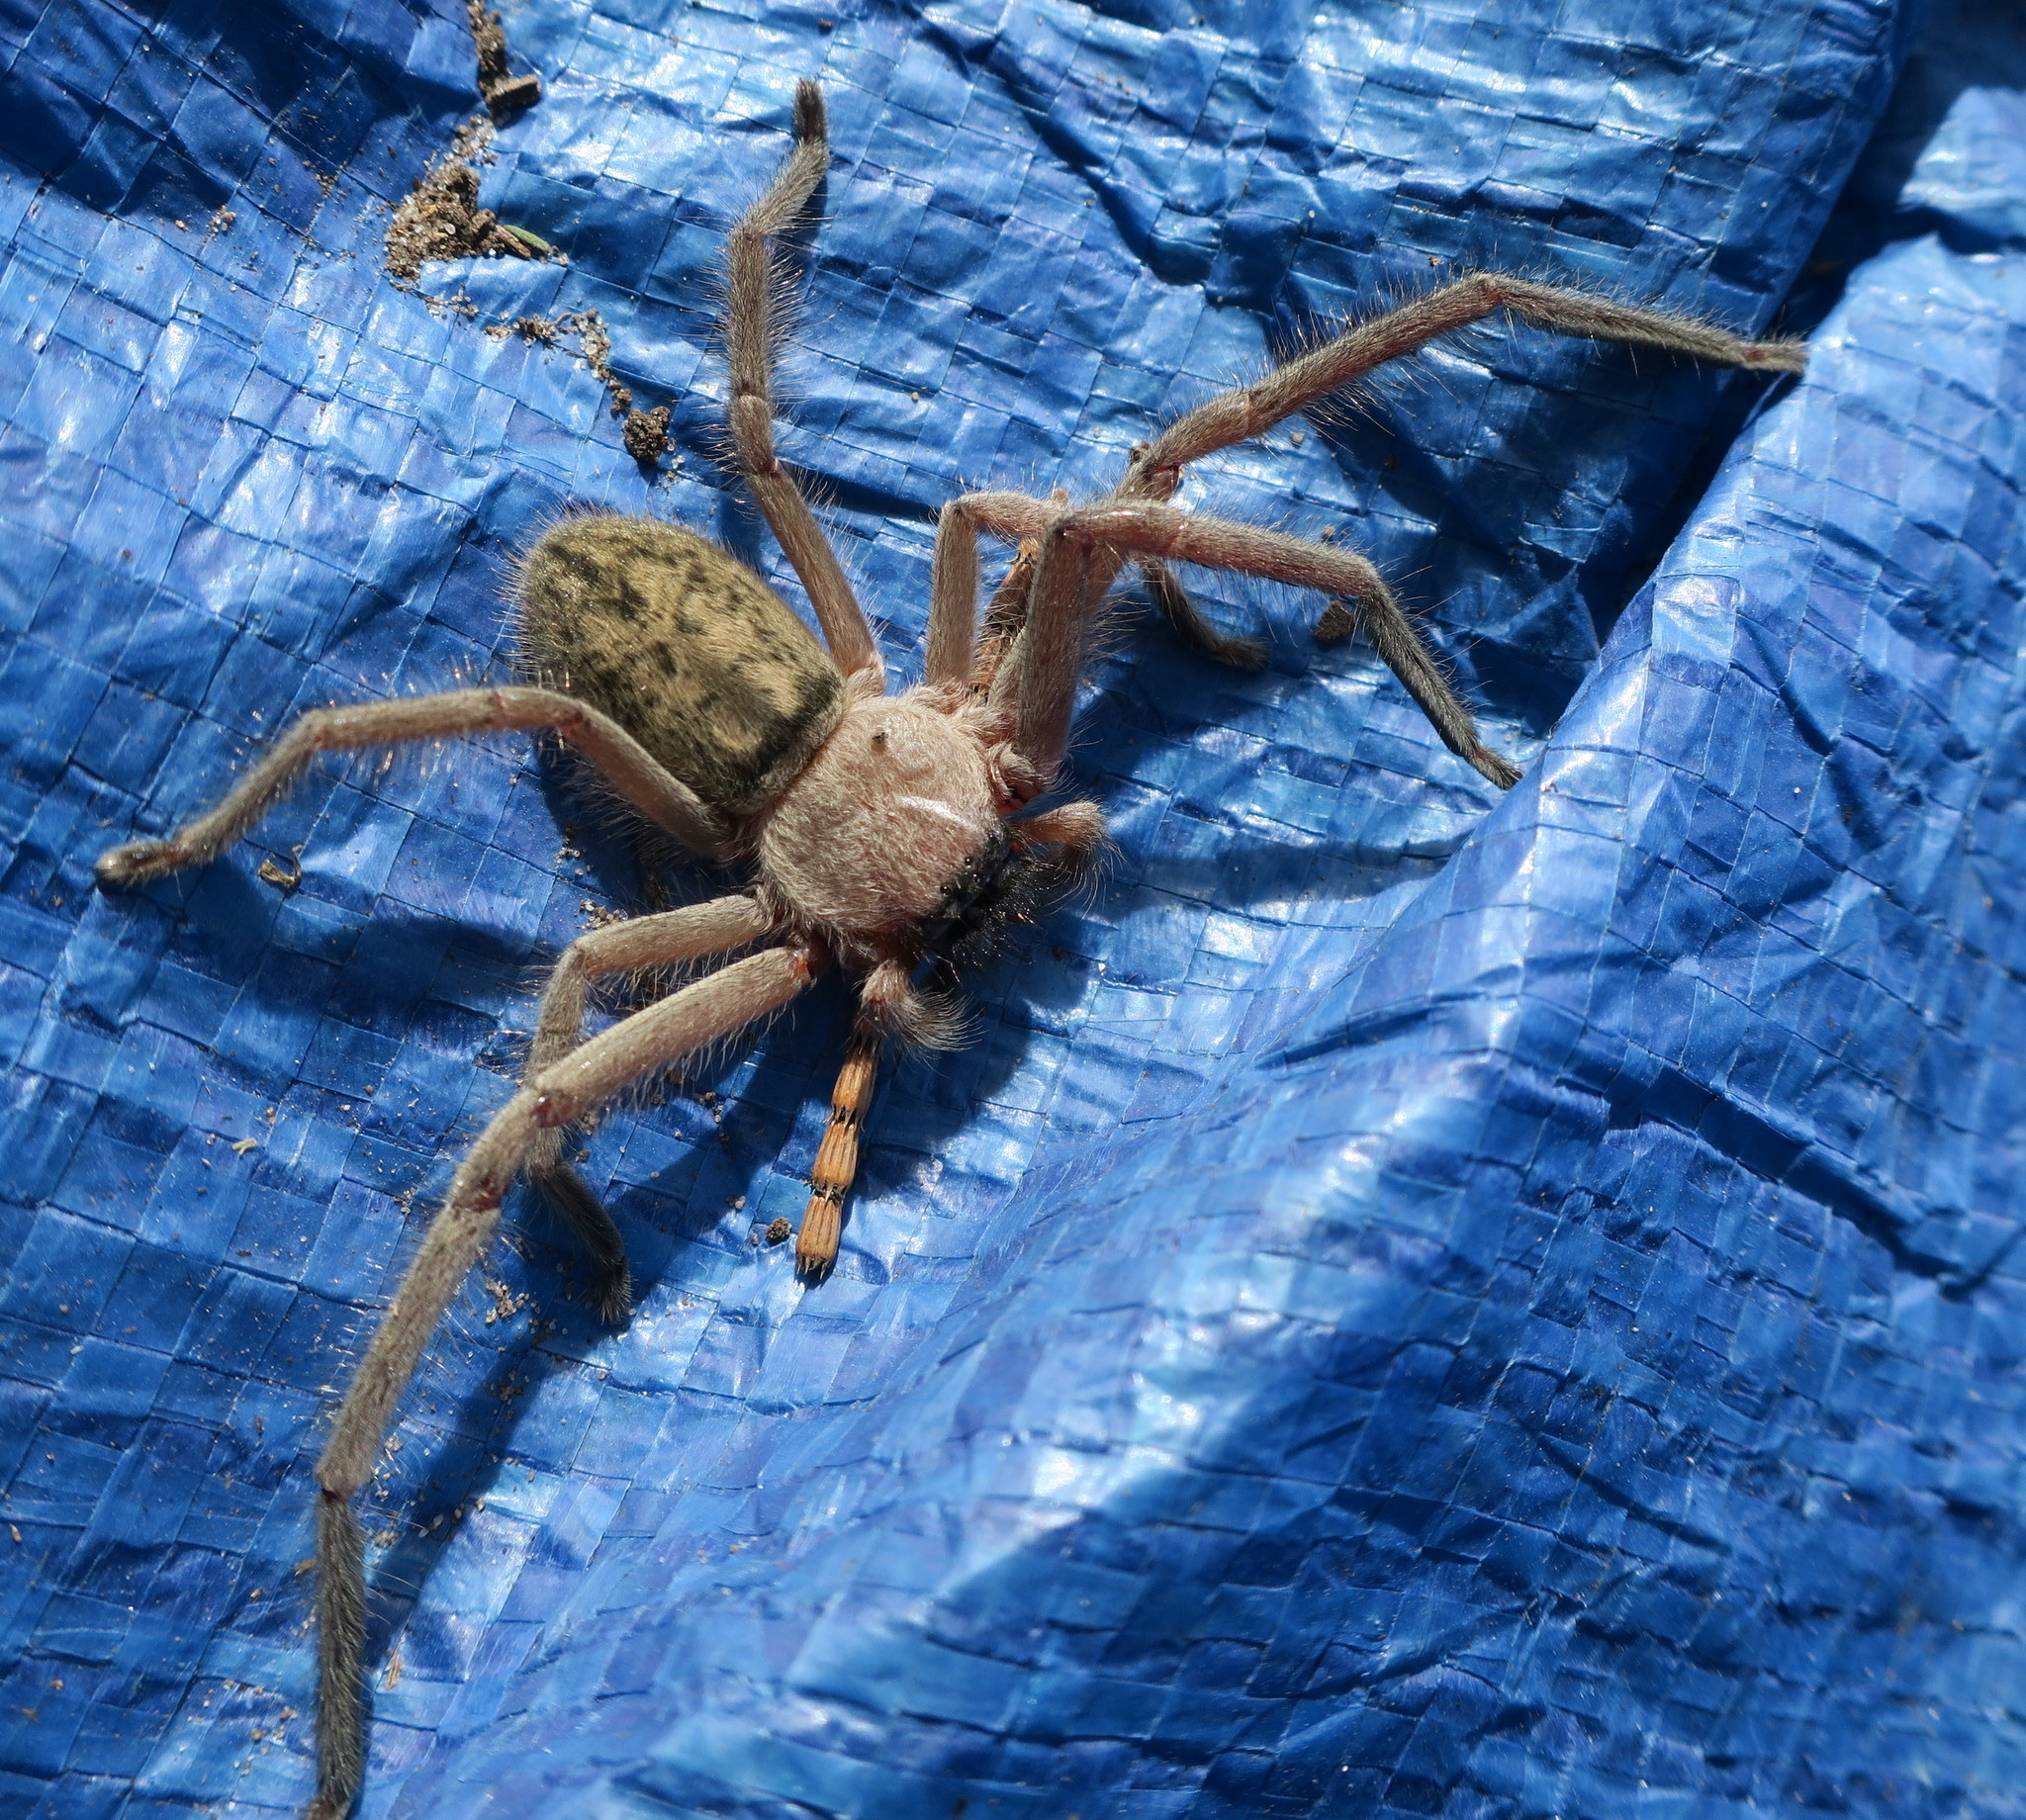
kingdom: Animalia
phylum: Arthropoda
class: Arachnida
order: Araneae
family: Sparassidae
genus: Delena
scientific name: Delena cancerides
